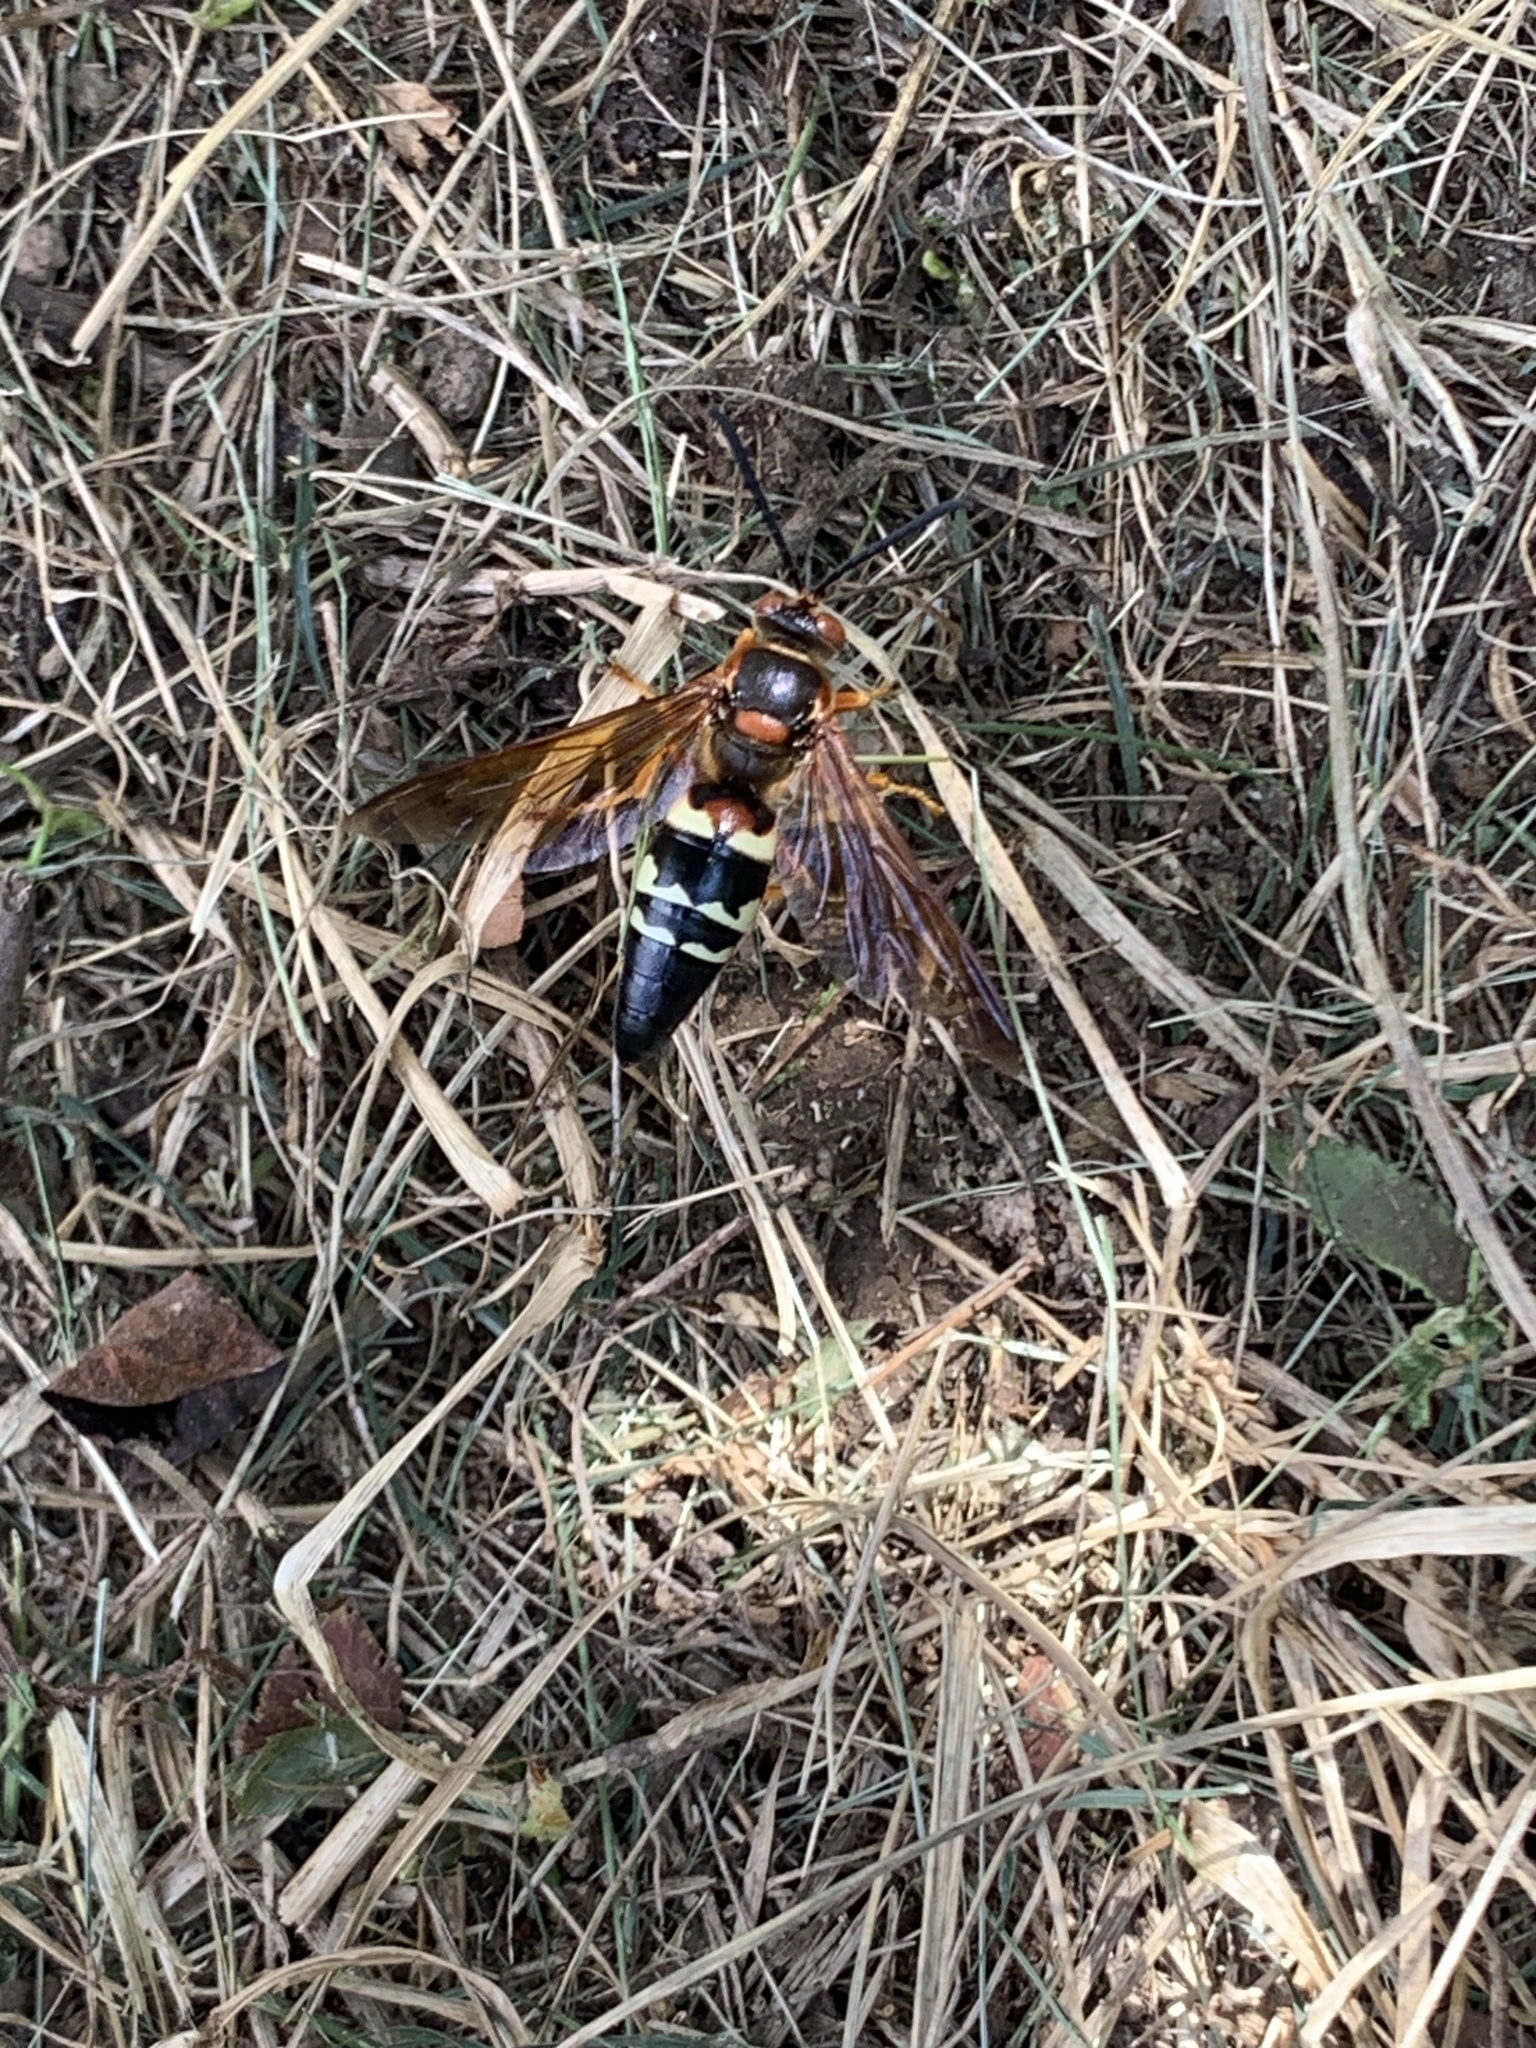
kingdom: Animalia
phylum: Arthropoda
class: Insecta
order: Hymenoptera
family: Crabronidae
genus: Sphecius
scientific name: Sphecius speciosus
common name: Cicada killer
